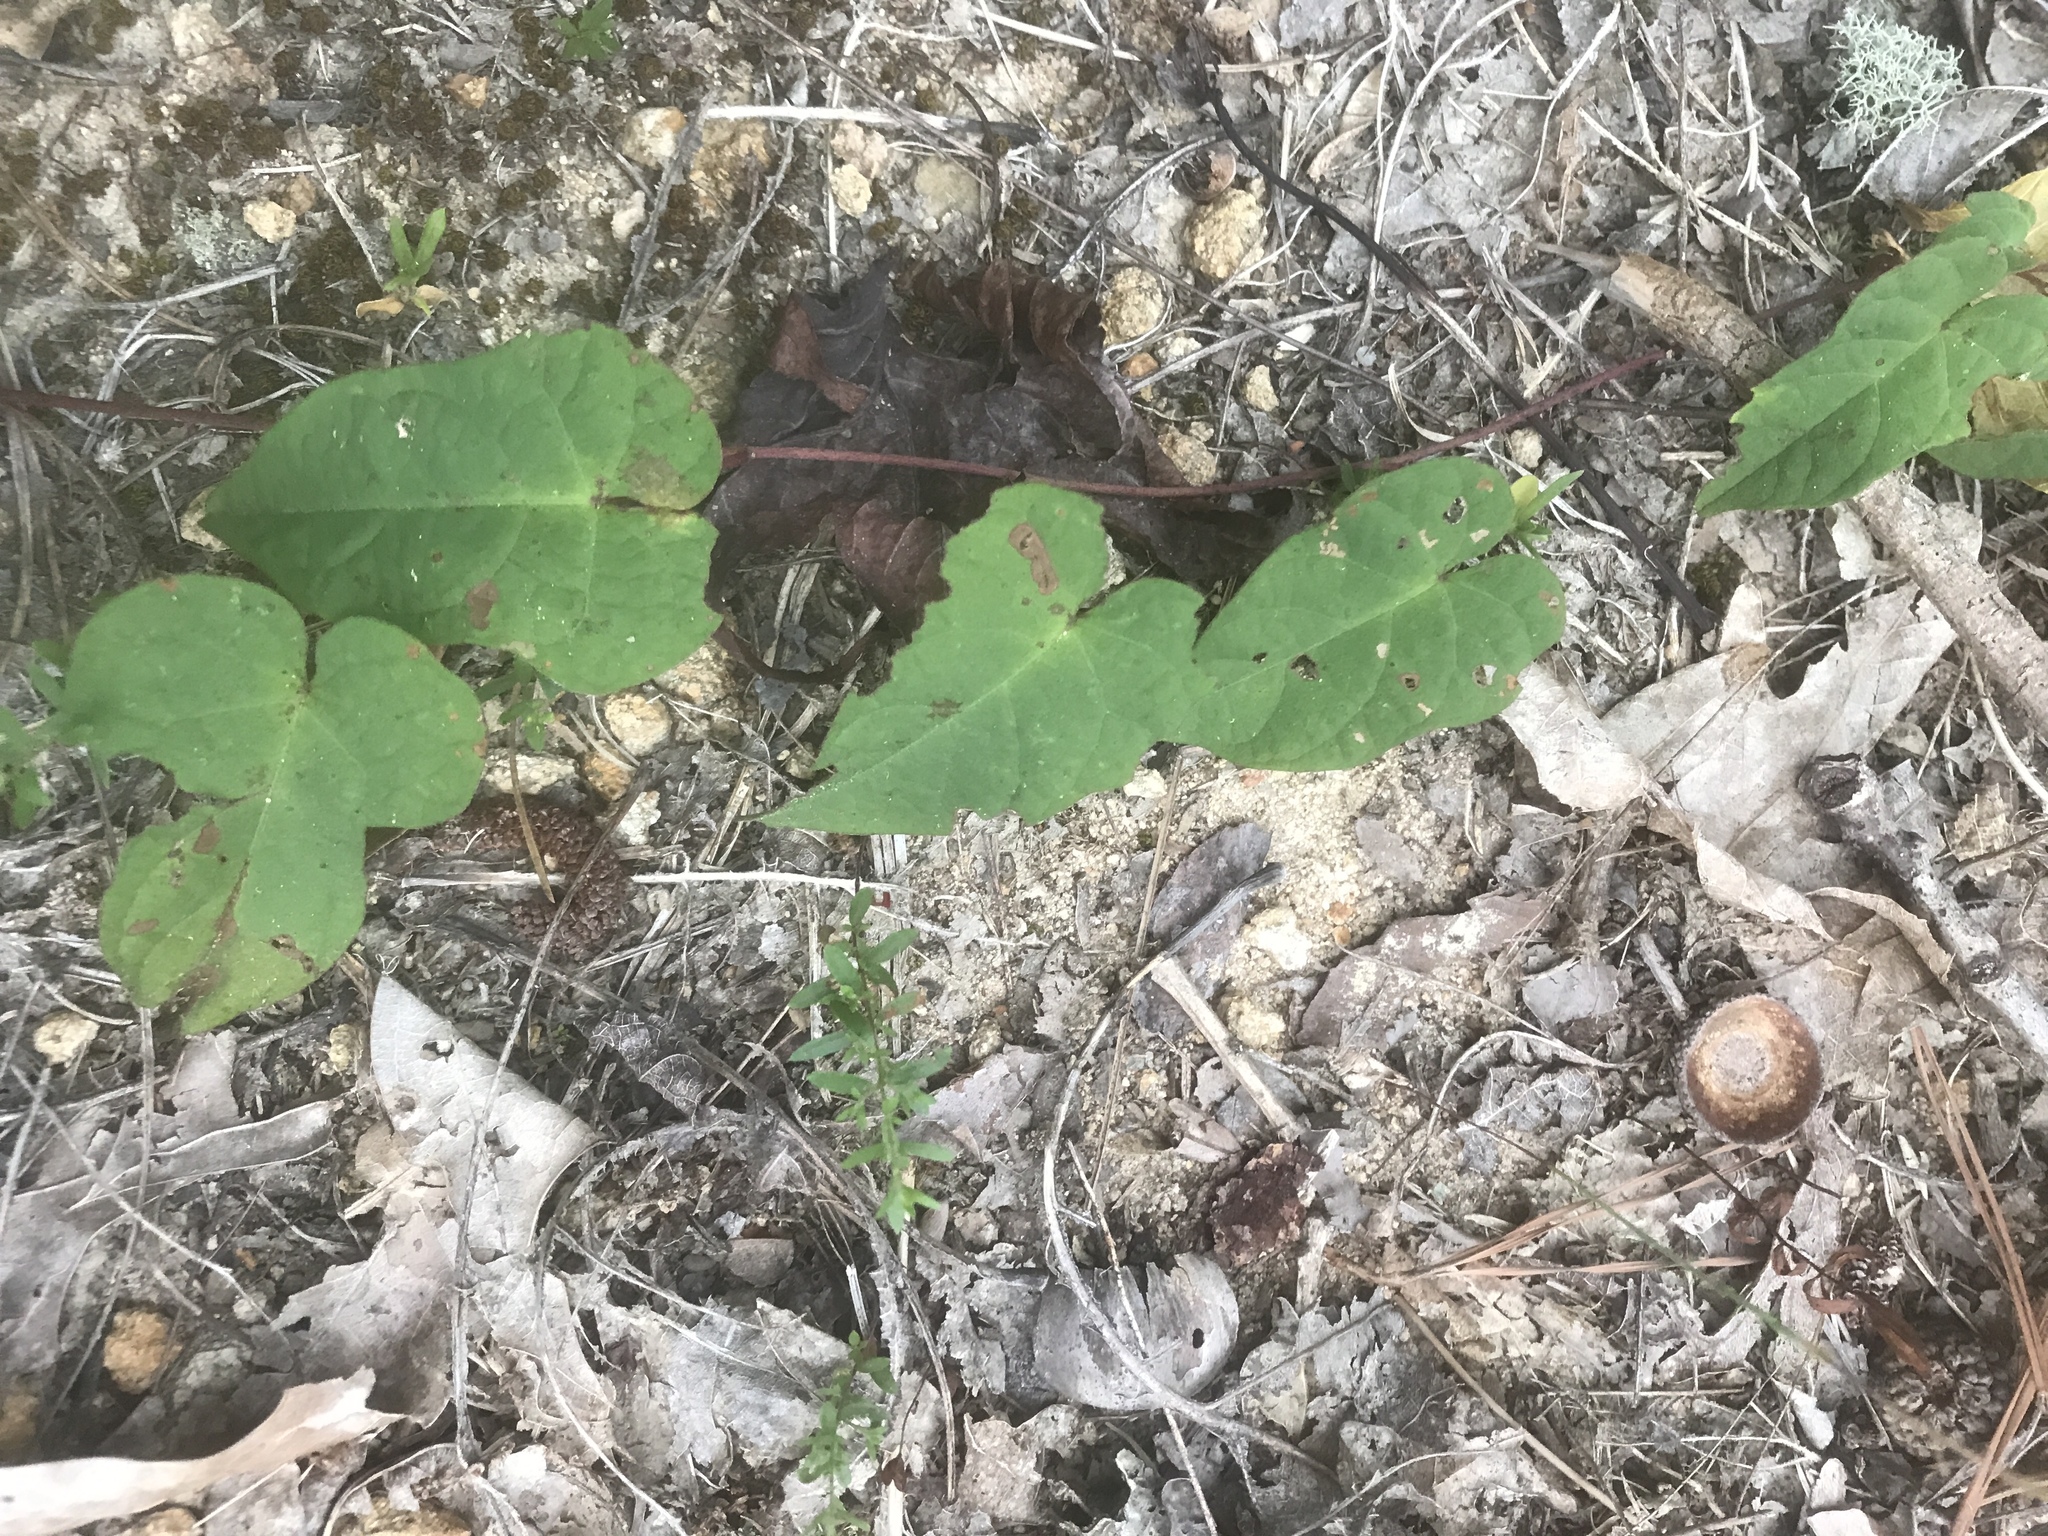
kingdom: Plantae
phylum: Tracheophyta
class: Magnoliopsida
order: Solanales
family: Convolvulaceae
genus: Ipomoea
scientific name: Ipomoea pandurata
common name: Man-of-the-earth
